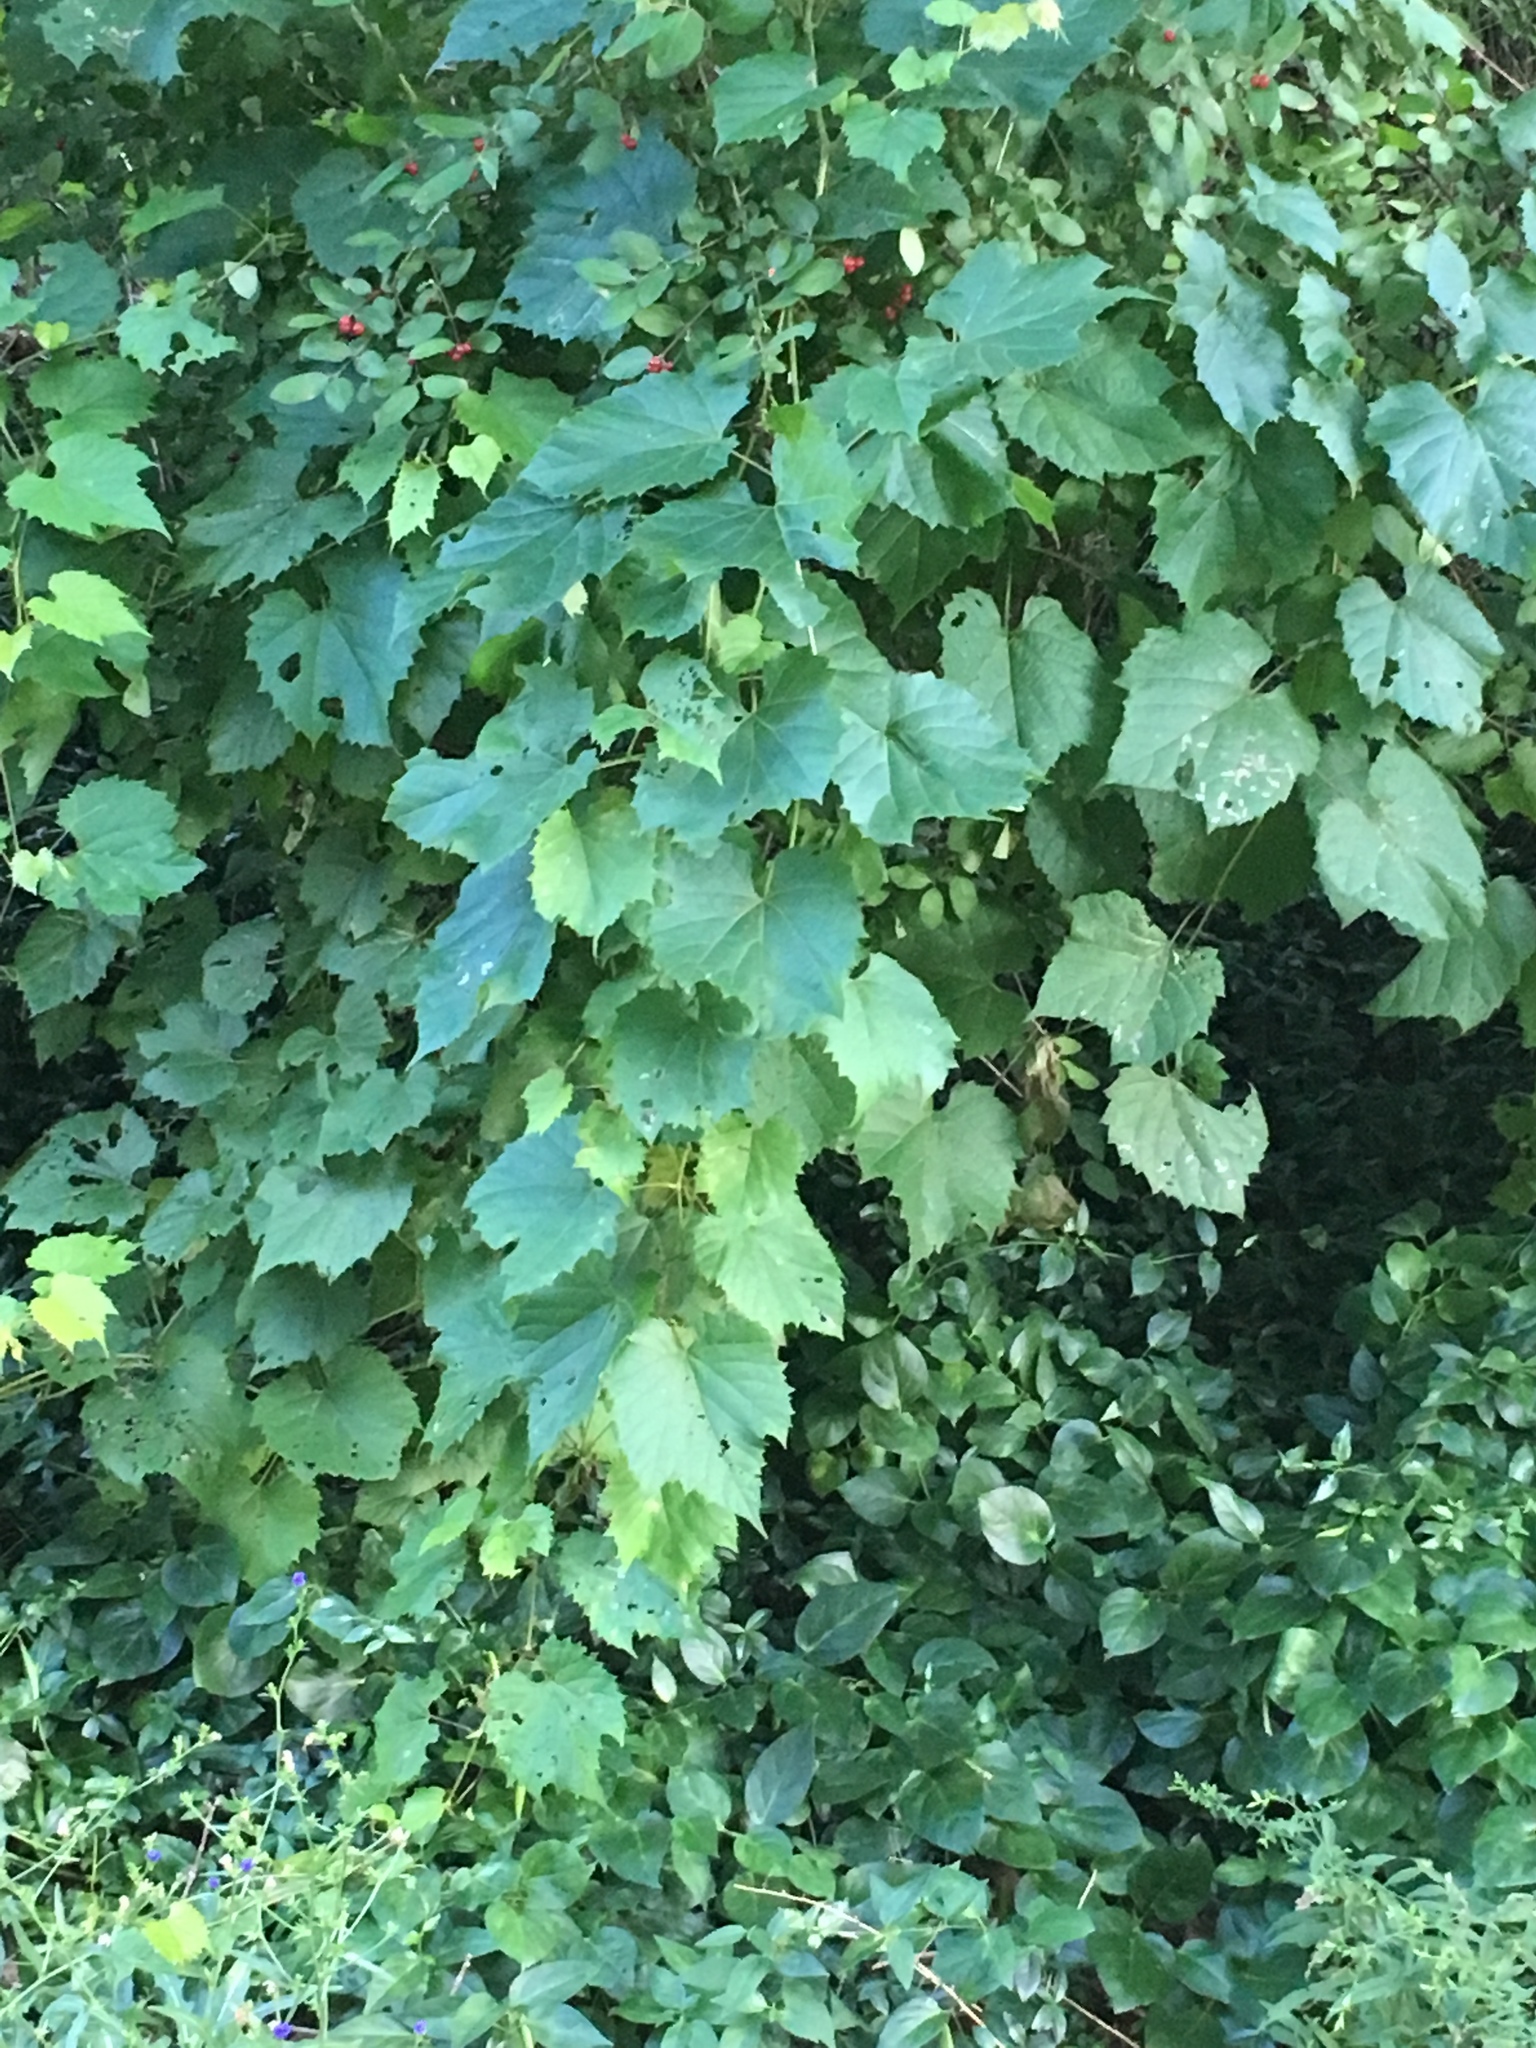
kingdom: Plantae
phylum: Tracheophyta
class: Magnoliopsida
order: Vitales
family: Vitaceae
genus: Vitis
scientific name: Vitis riparia
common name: Frost grape
